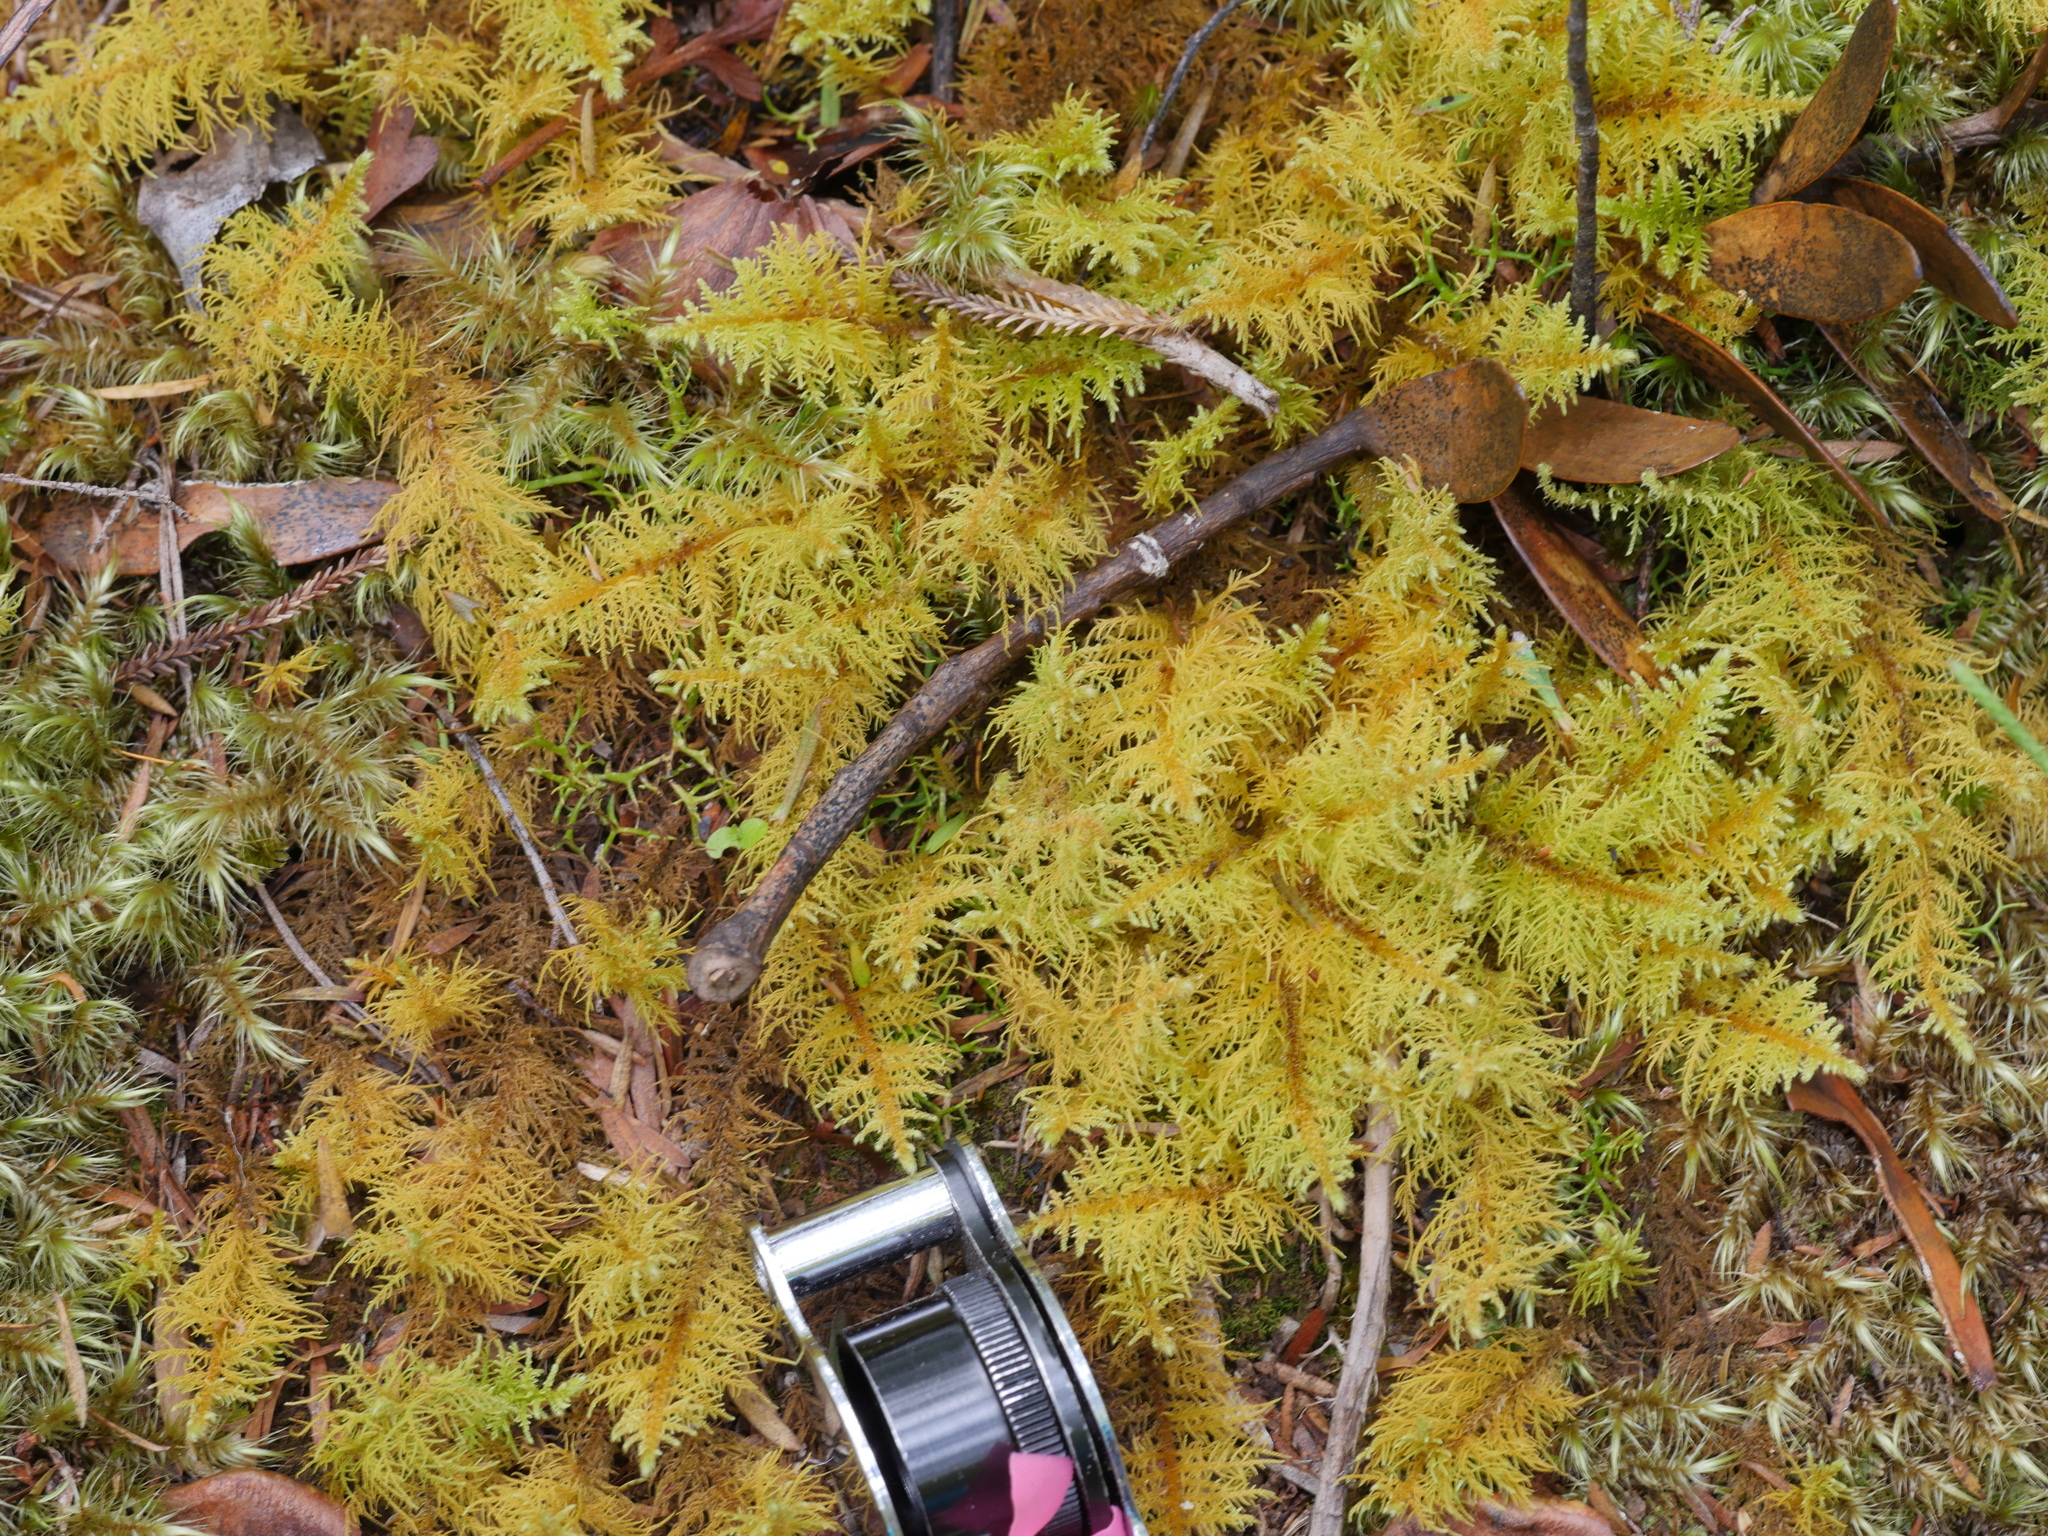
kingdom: Plantae
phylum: Bryophyta
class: Bryopsida
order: Hypnales
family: Thuidiaceae
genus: Thuidiopsis
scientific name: Thuidiopsis furfurosa
